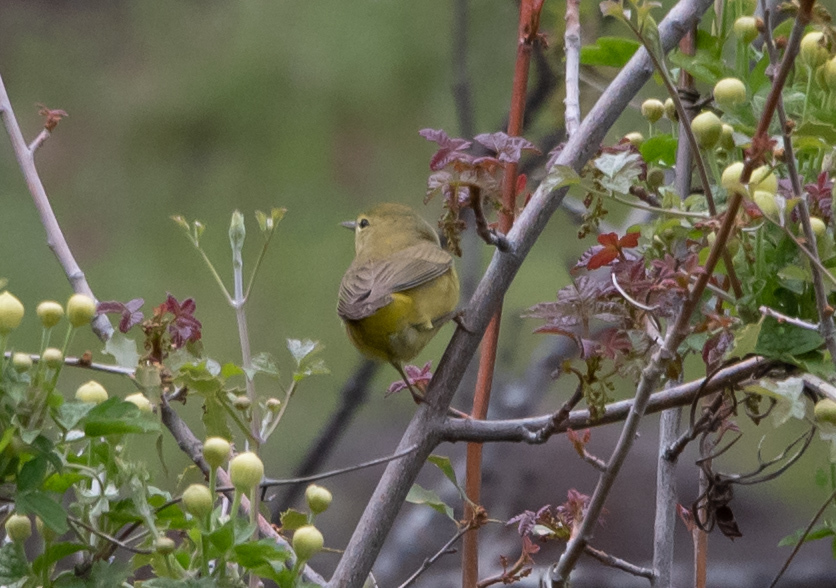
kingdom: Animalia
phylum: Chordata
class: Aves
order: Passeriformes
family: Parulidae
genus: Leiothlypis
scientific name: Leiothlypis celata
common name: Orange-crowned warbler
